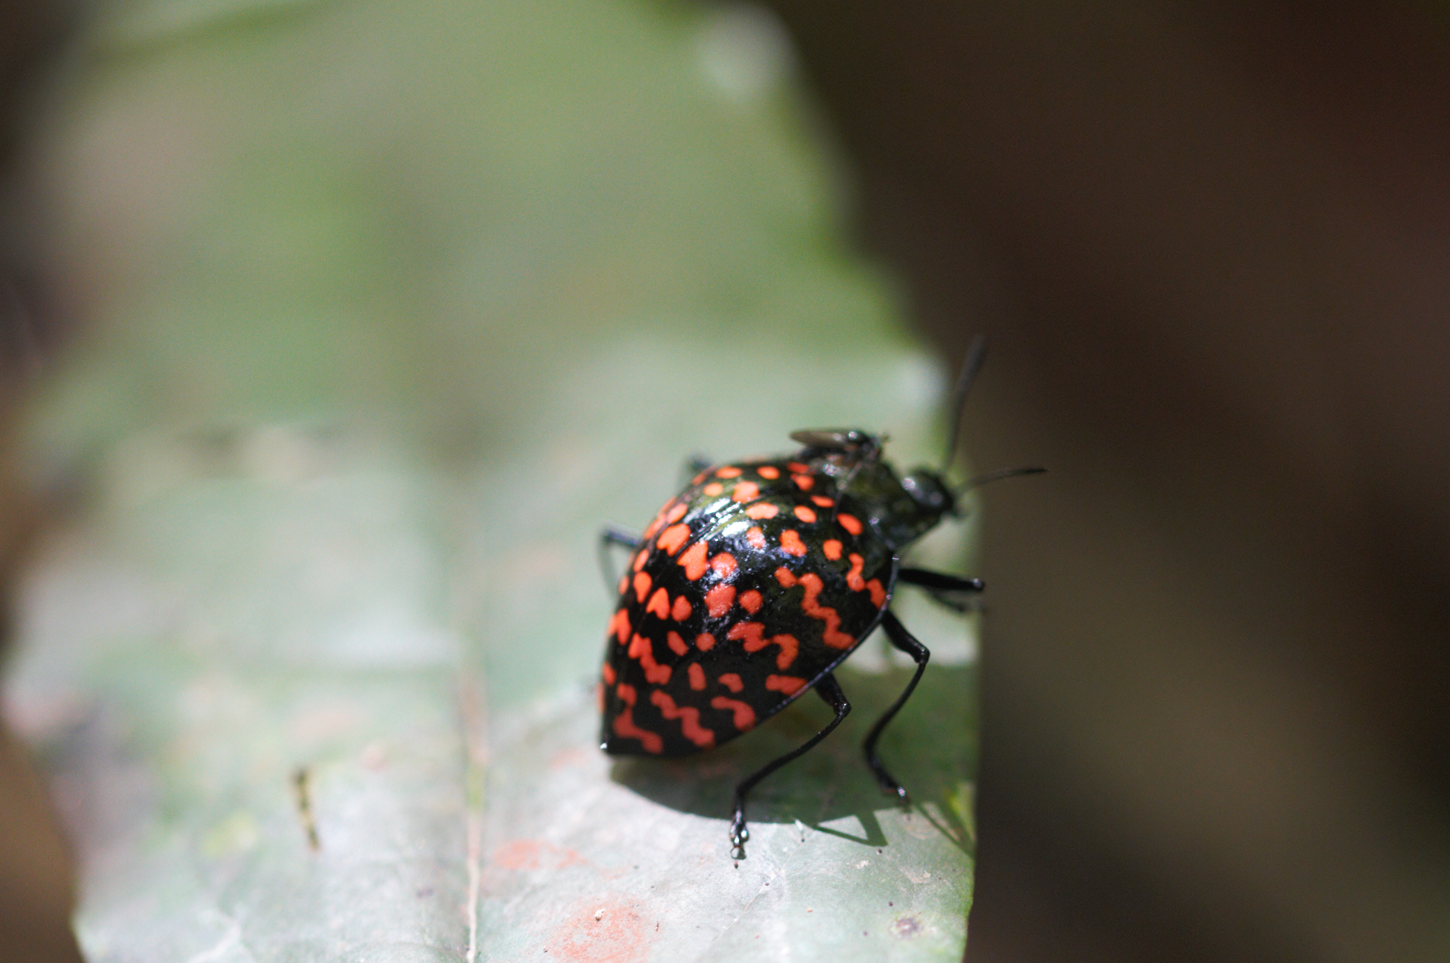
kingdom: Animalia
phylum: Arthropoda
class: Insecta
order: Coleoptera
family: Erotylidae
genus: Erotylus
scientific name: Erotylus giganteus
